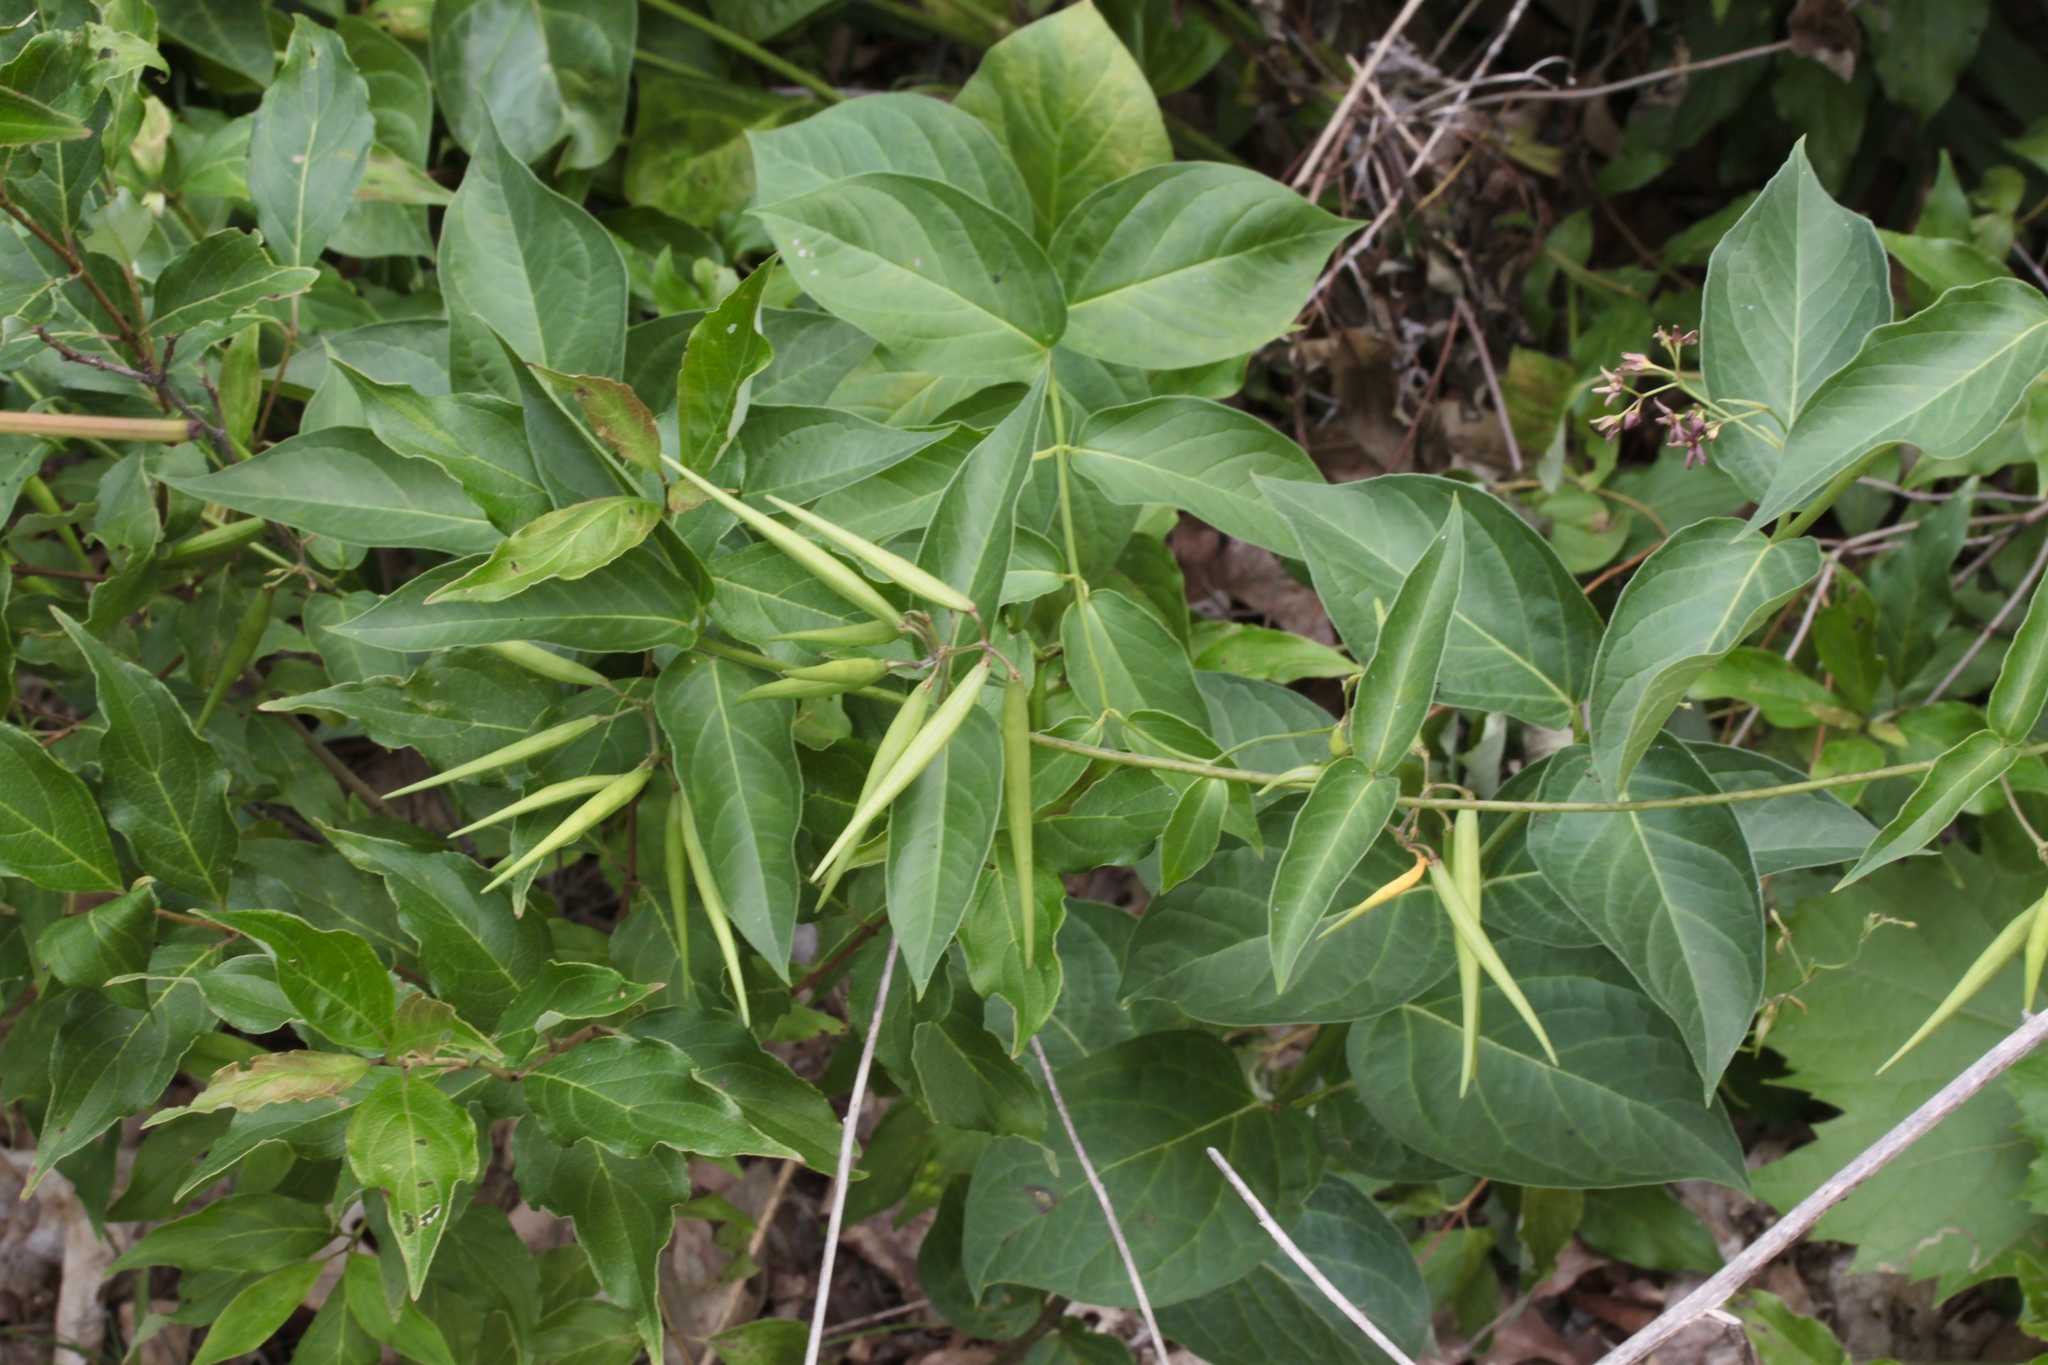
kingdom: Plantae
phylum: Tracheophyta
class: Magnoliopsida
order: Gentianales
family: Apocynaceae
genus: Vincetoxicum
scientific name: Vincetoxicum rossicum
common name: Dog-strangling vine
